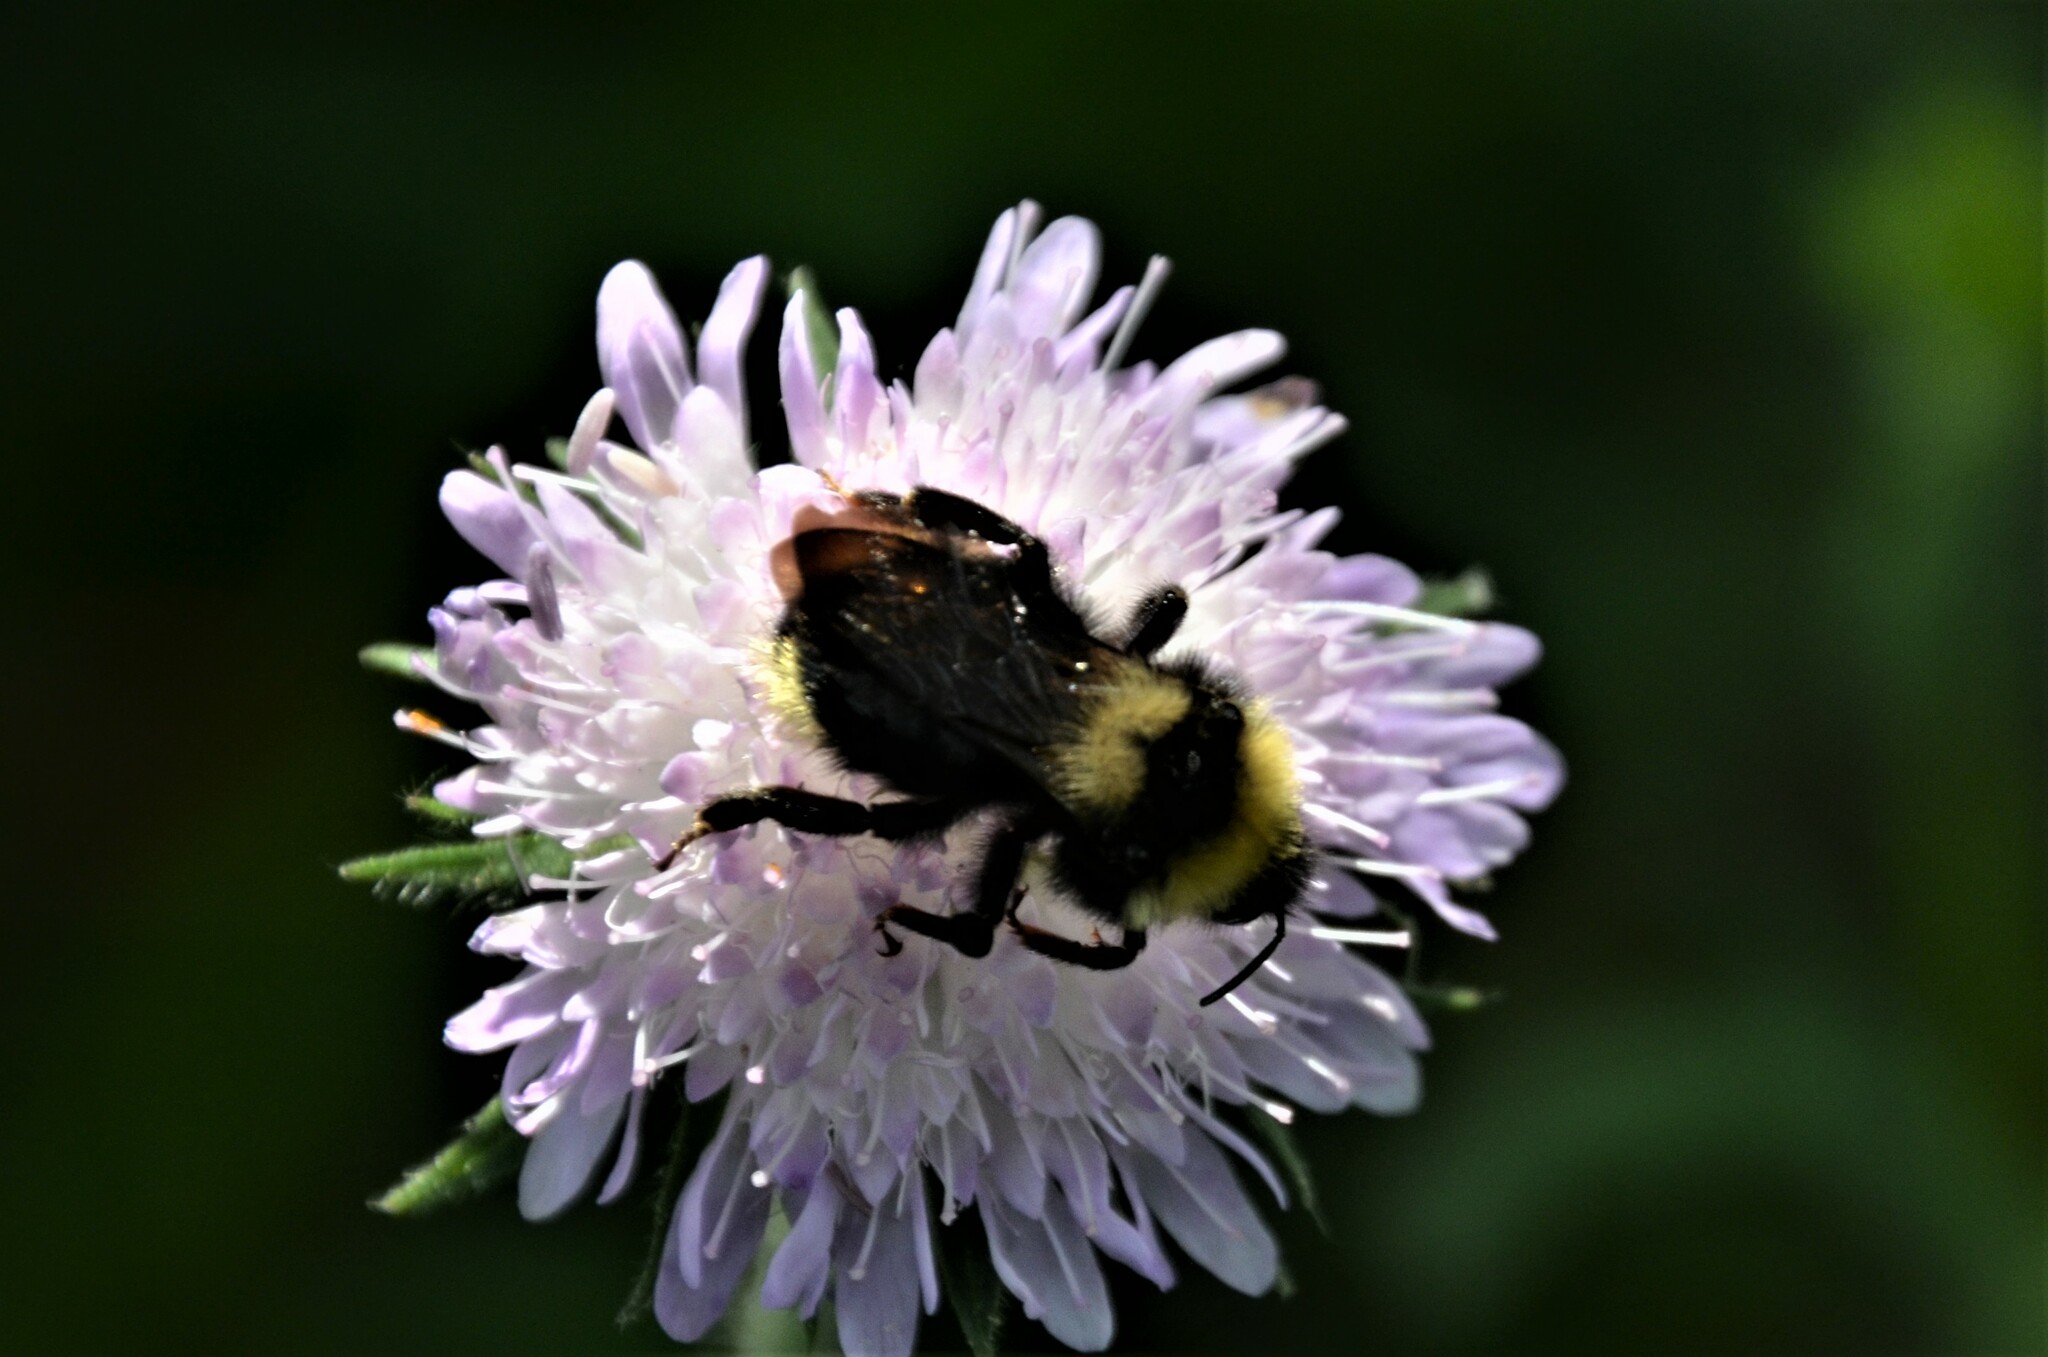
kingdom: Animalia
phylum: Arthropoda
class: Insecta
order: Hymenoptera
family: Apidae
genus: Bombus
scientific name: Bombus campestris
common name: Field cuckoo-bee
